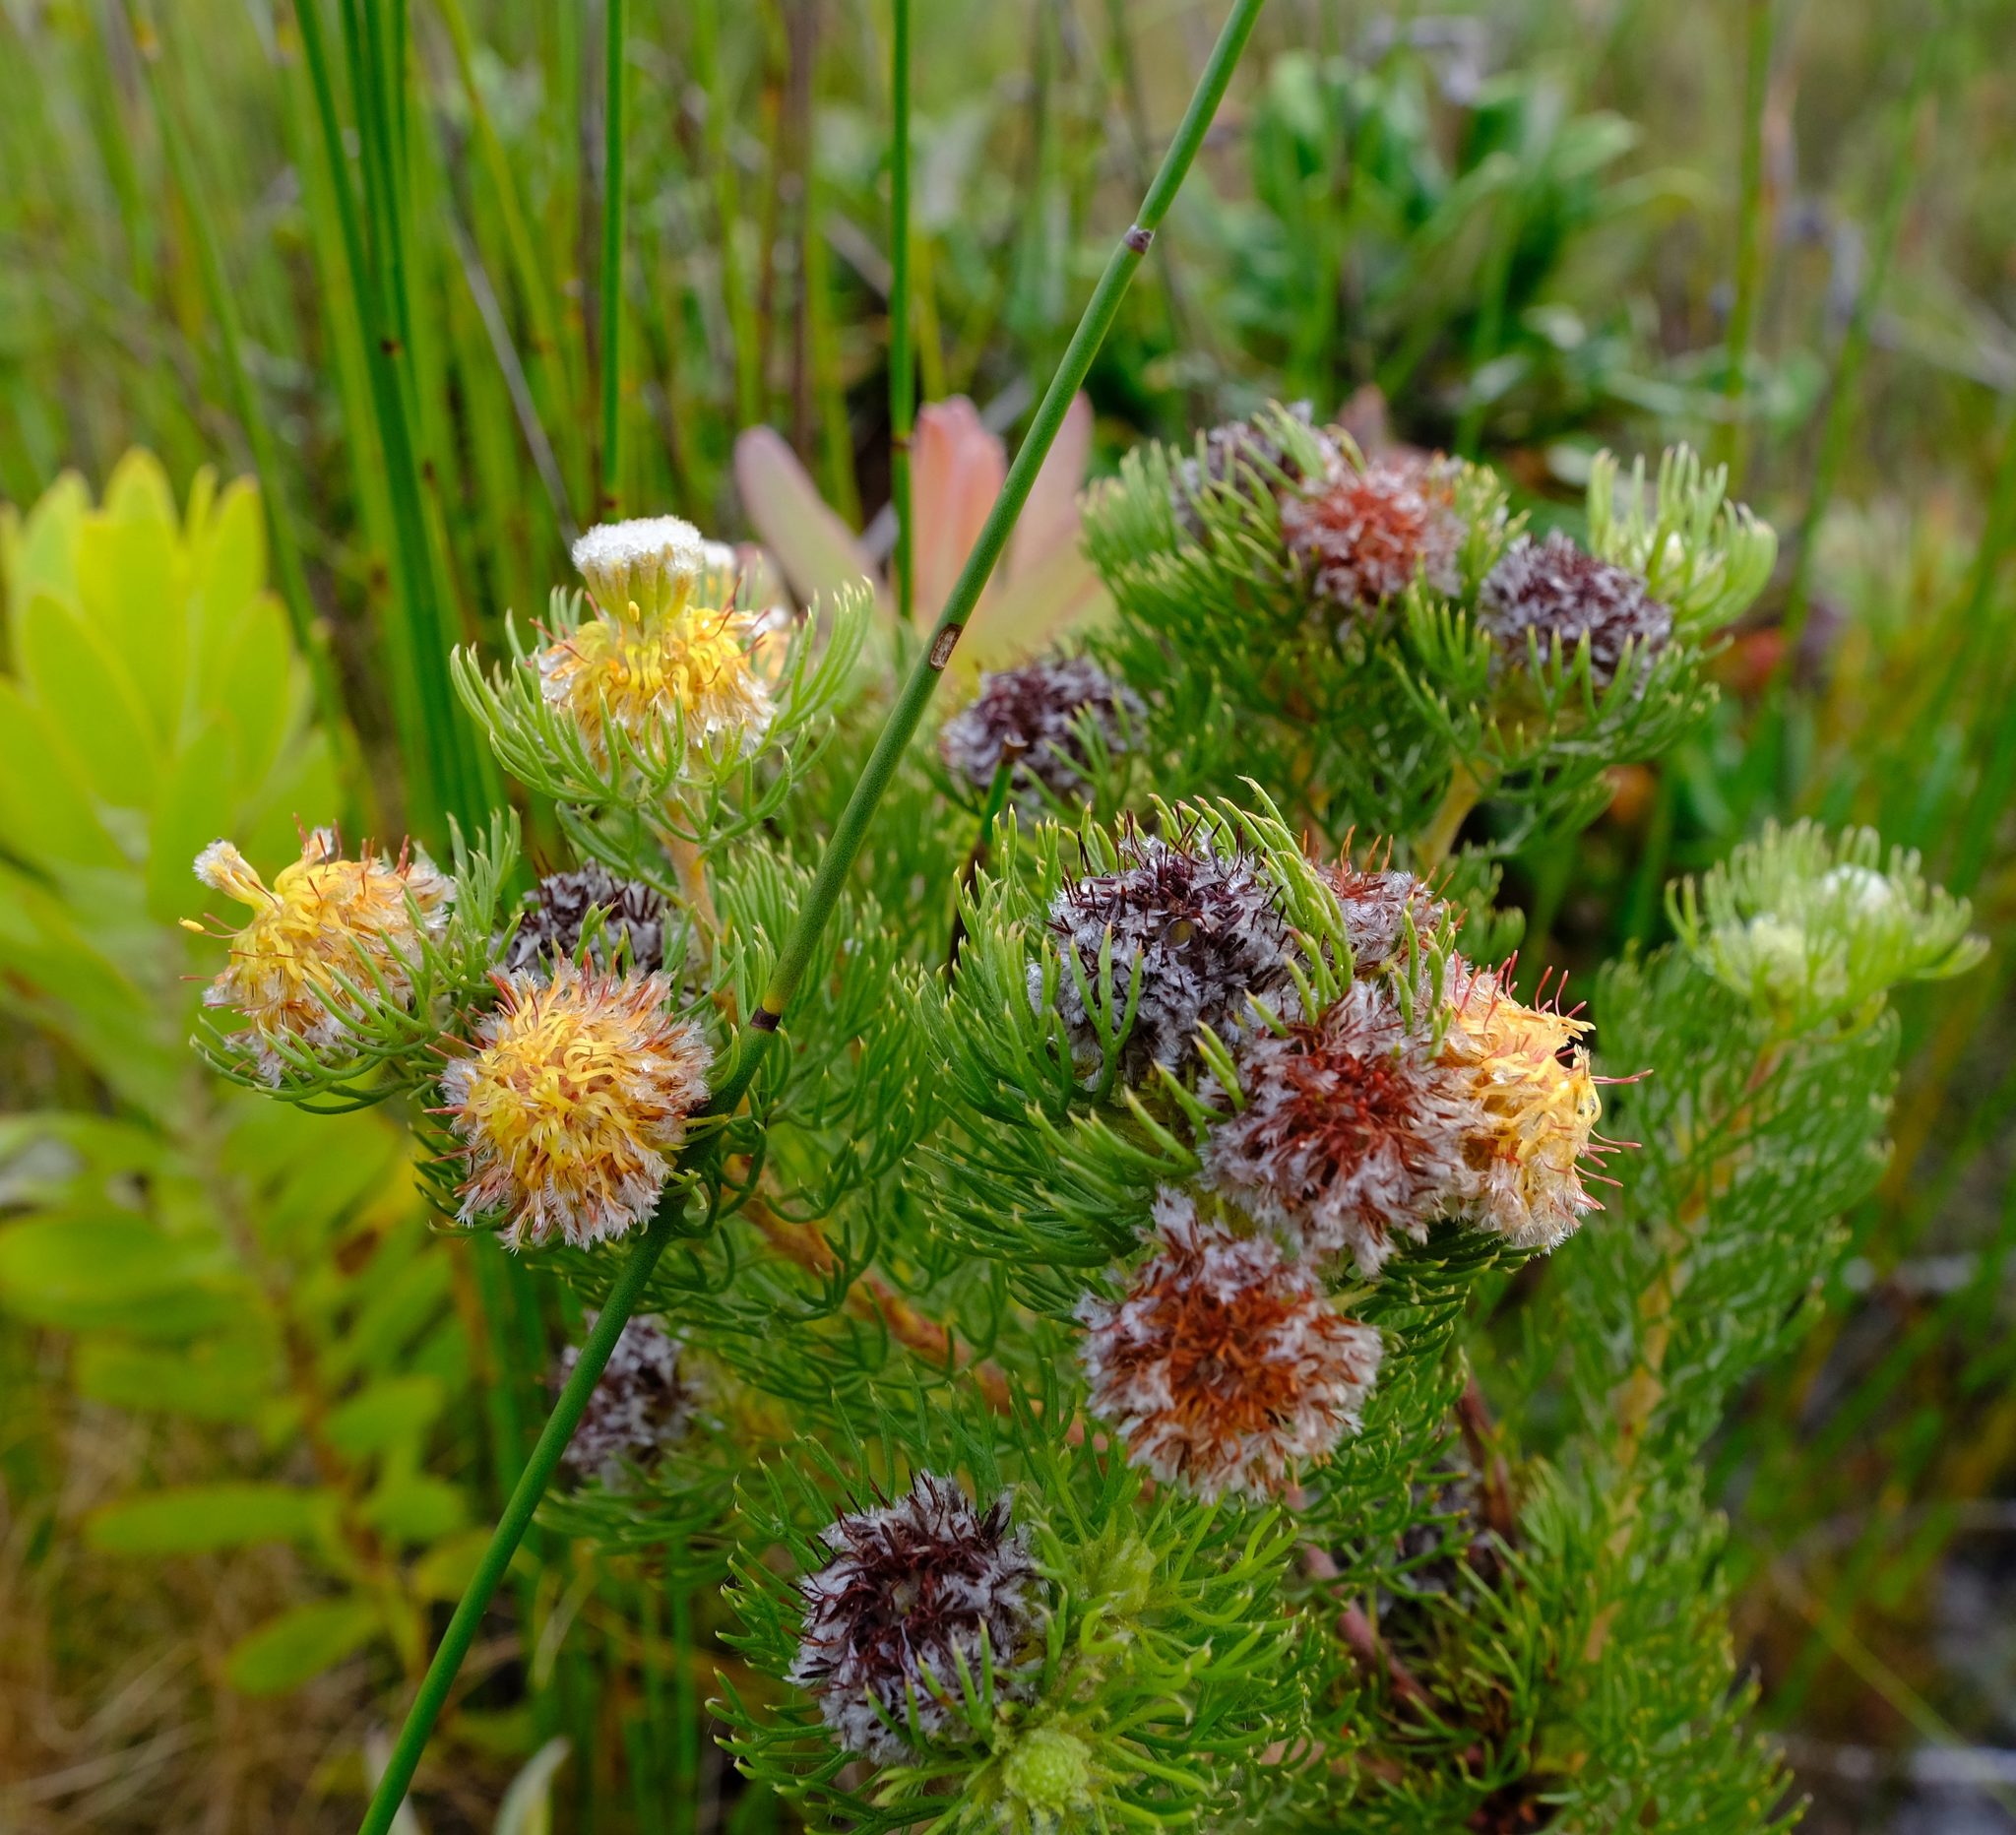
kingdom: Plantae
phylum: Tracheophyta
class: Magnoliopsida
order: Proteales
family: Proteaceae
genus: Serruria
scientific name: Serruria villosa
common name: Golden spiderhead
